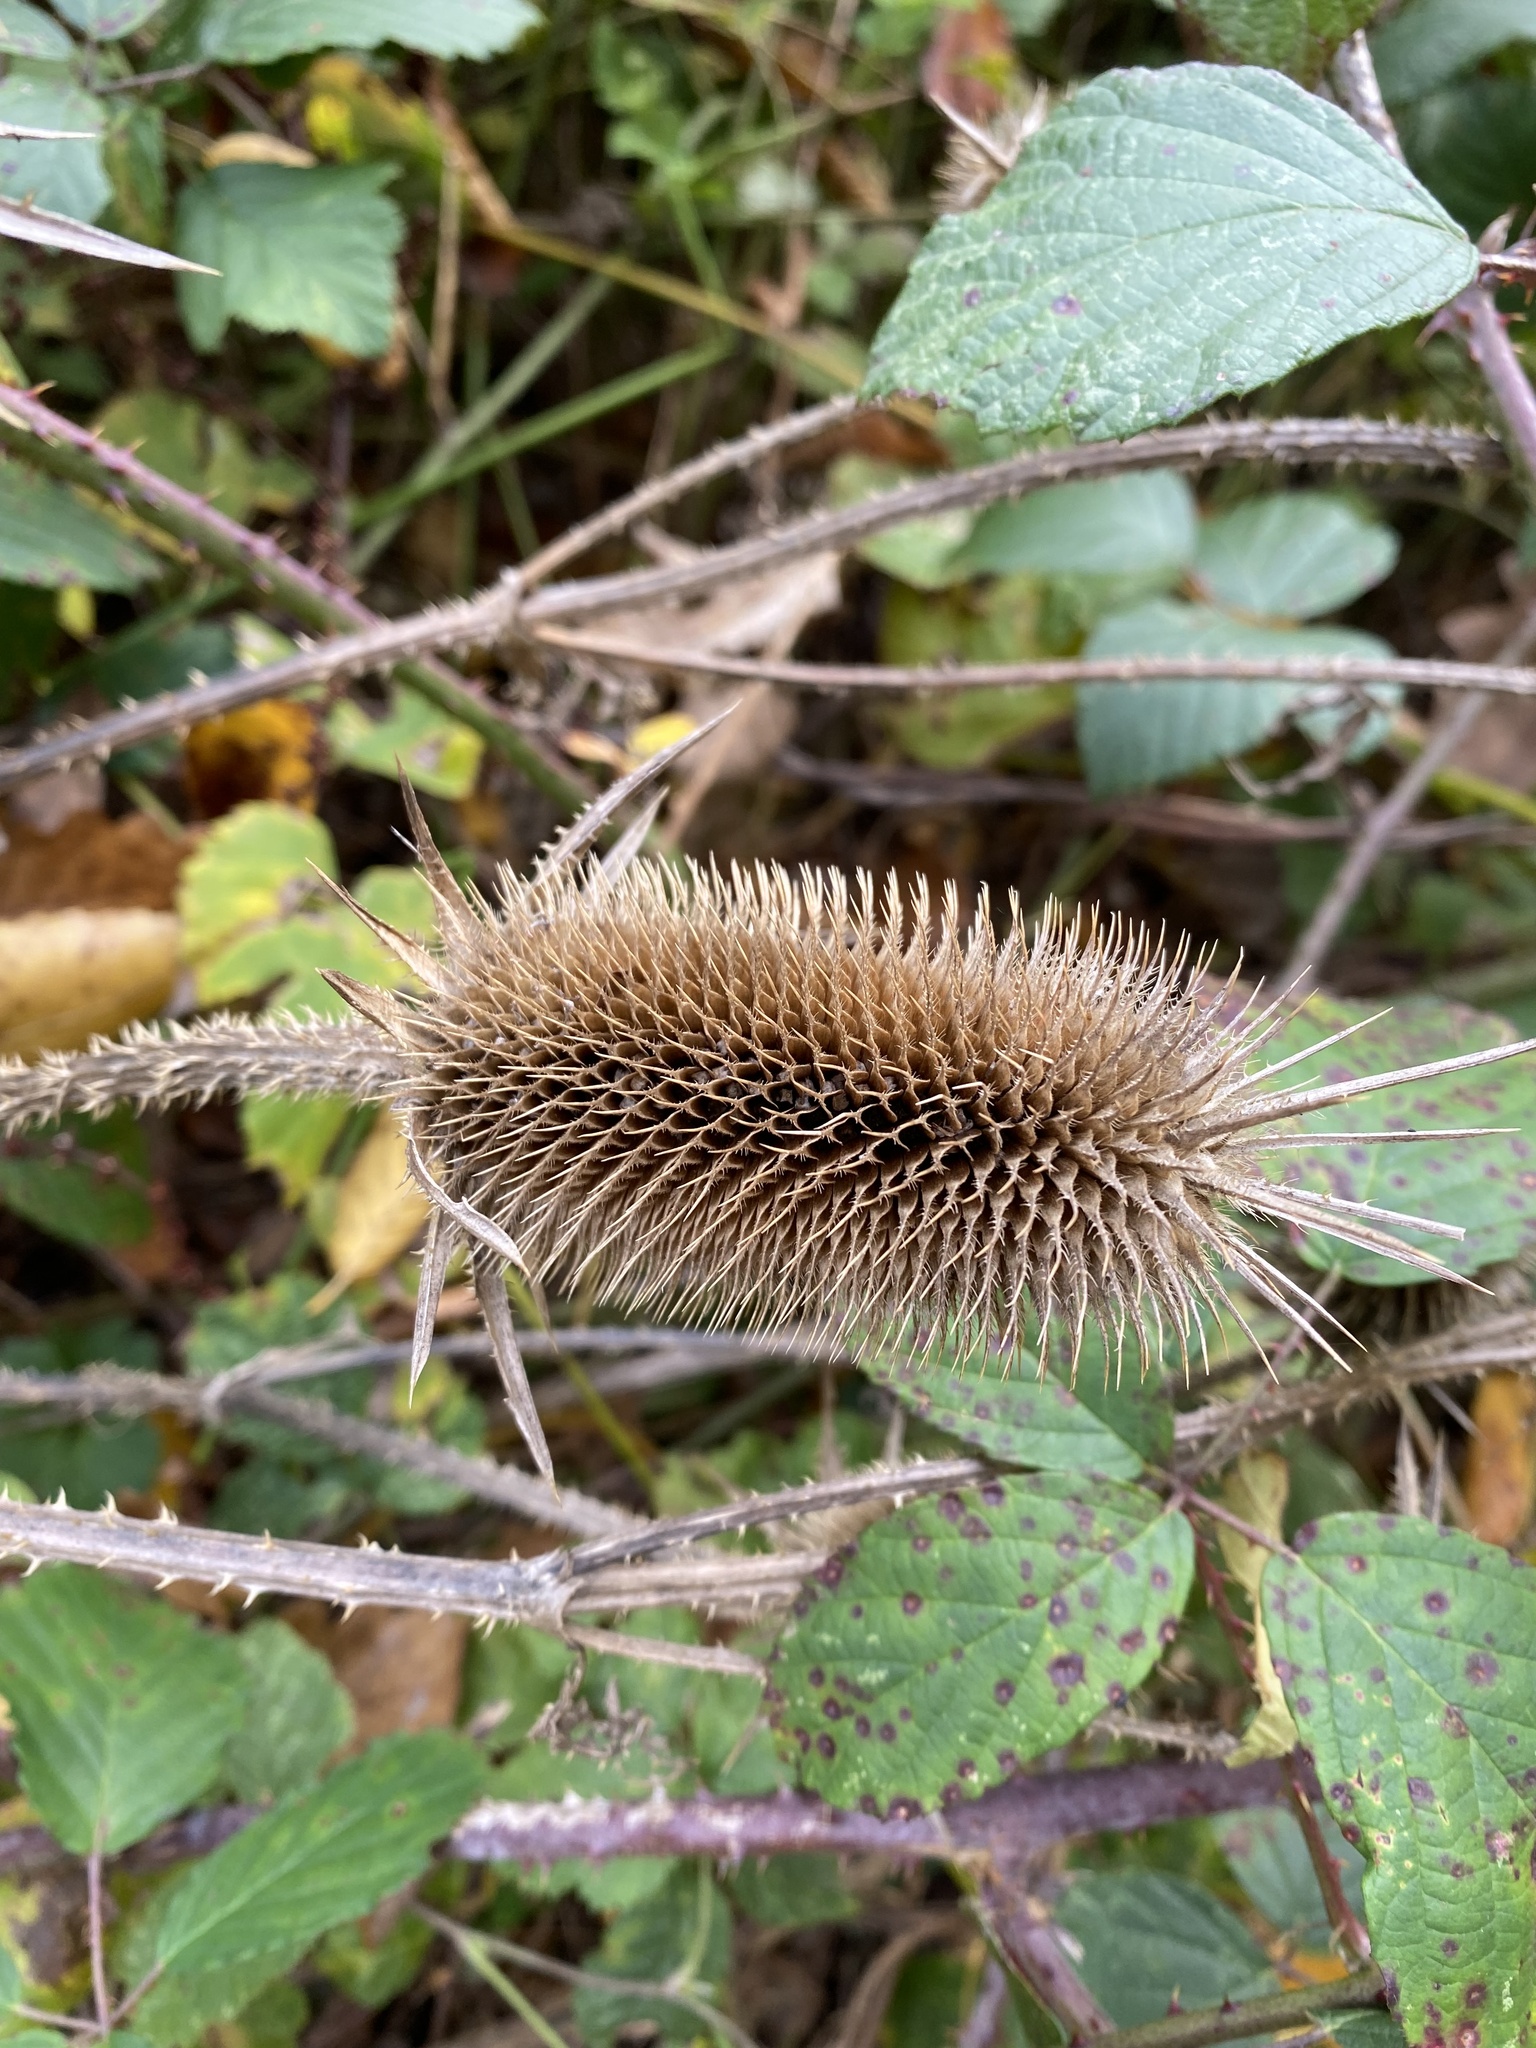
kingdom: Plantae
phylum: Tracheophyta
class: Magnoliopsida
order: Dipsacales
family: Caprifoliaceae
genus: Dipsacus
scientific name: Dipsacus laciniatus
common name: Cut-leaved teasel
